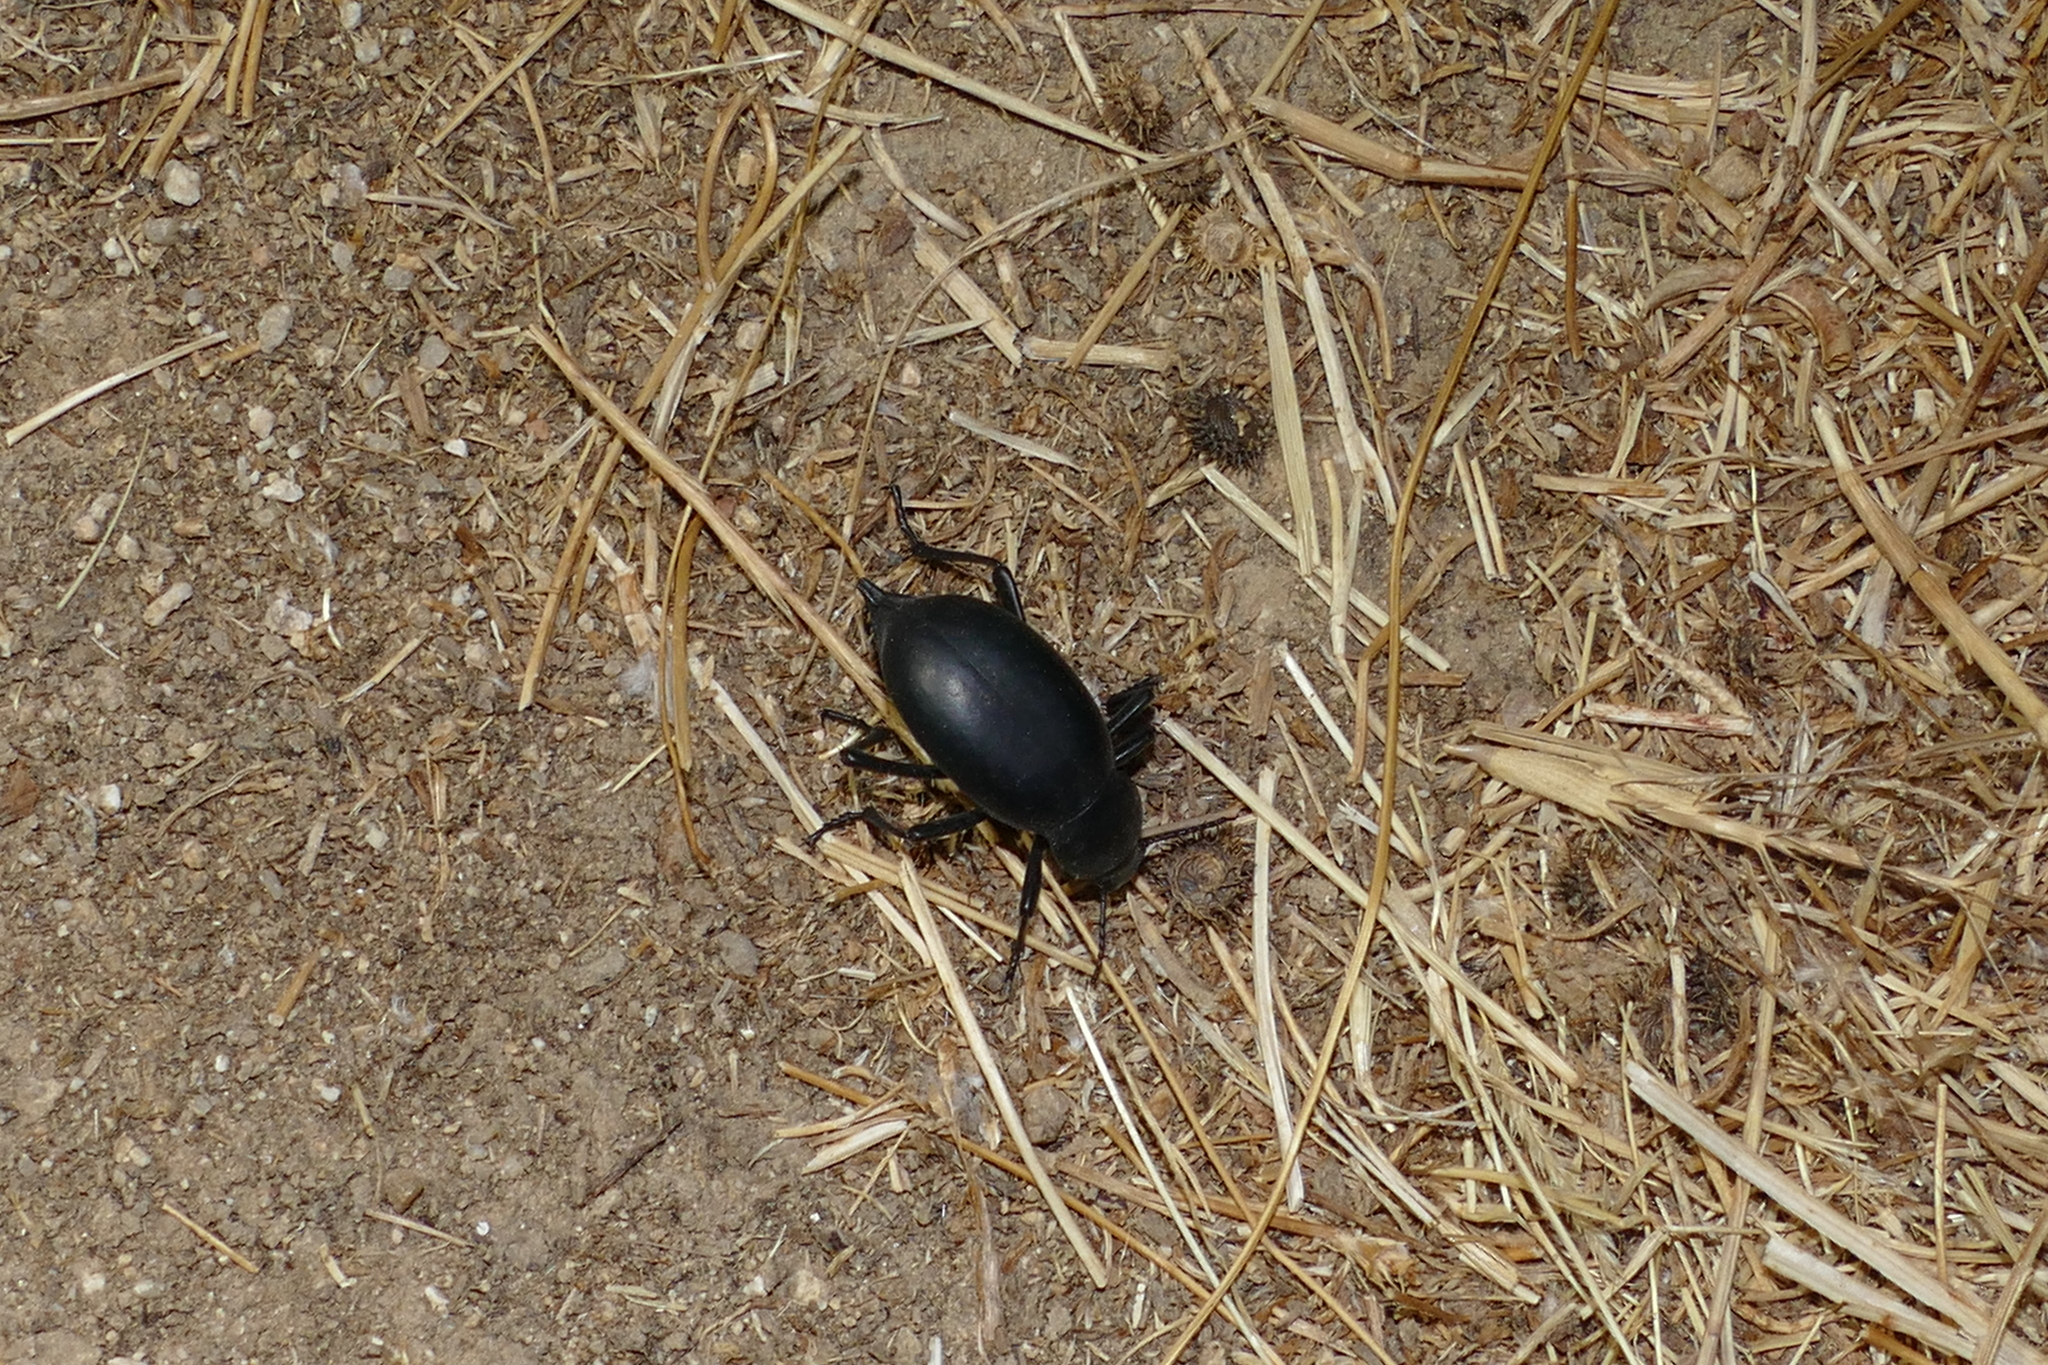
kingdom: Animalia
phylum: Arthropoda
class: Insecta
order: Coleoptera
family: Tenebrionidae
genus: Blaps
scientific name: Blaps hispanica
